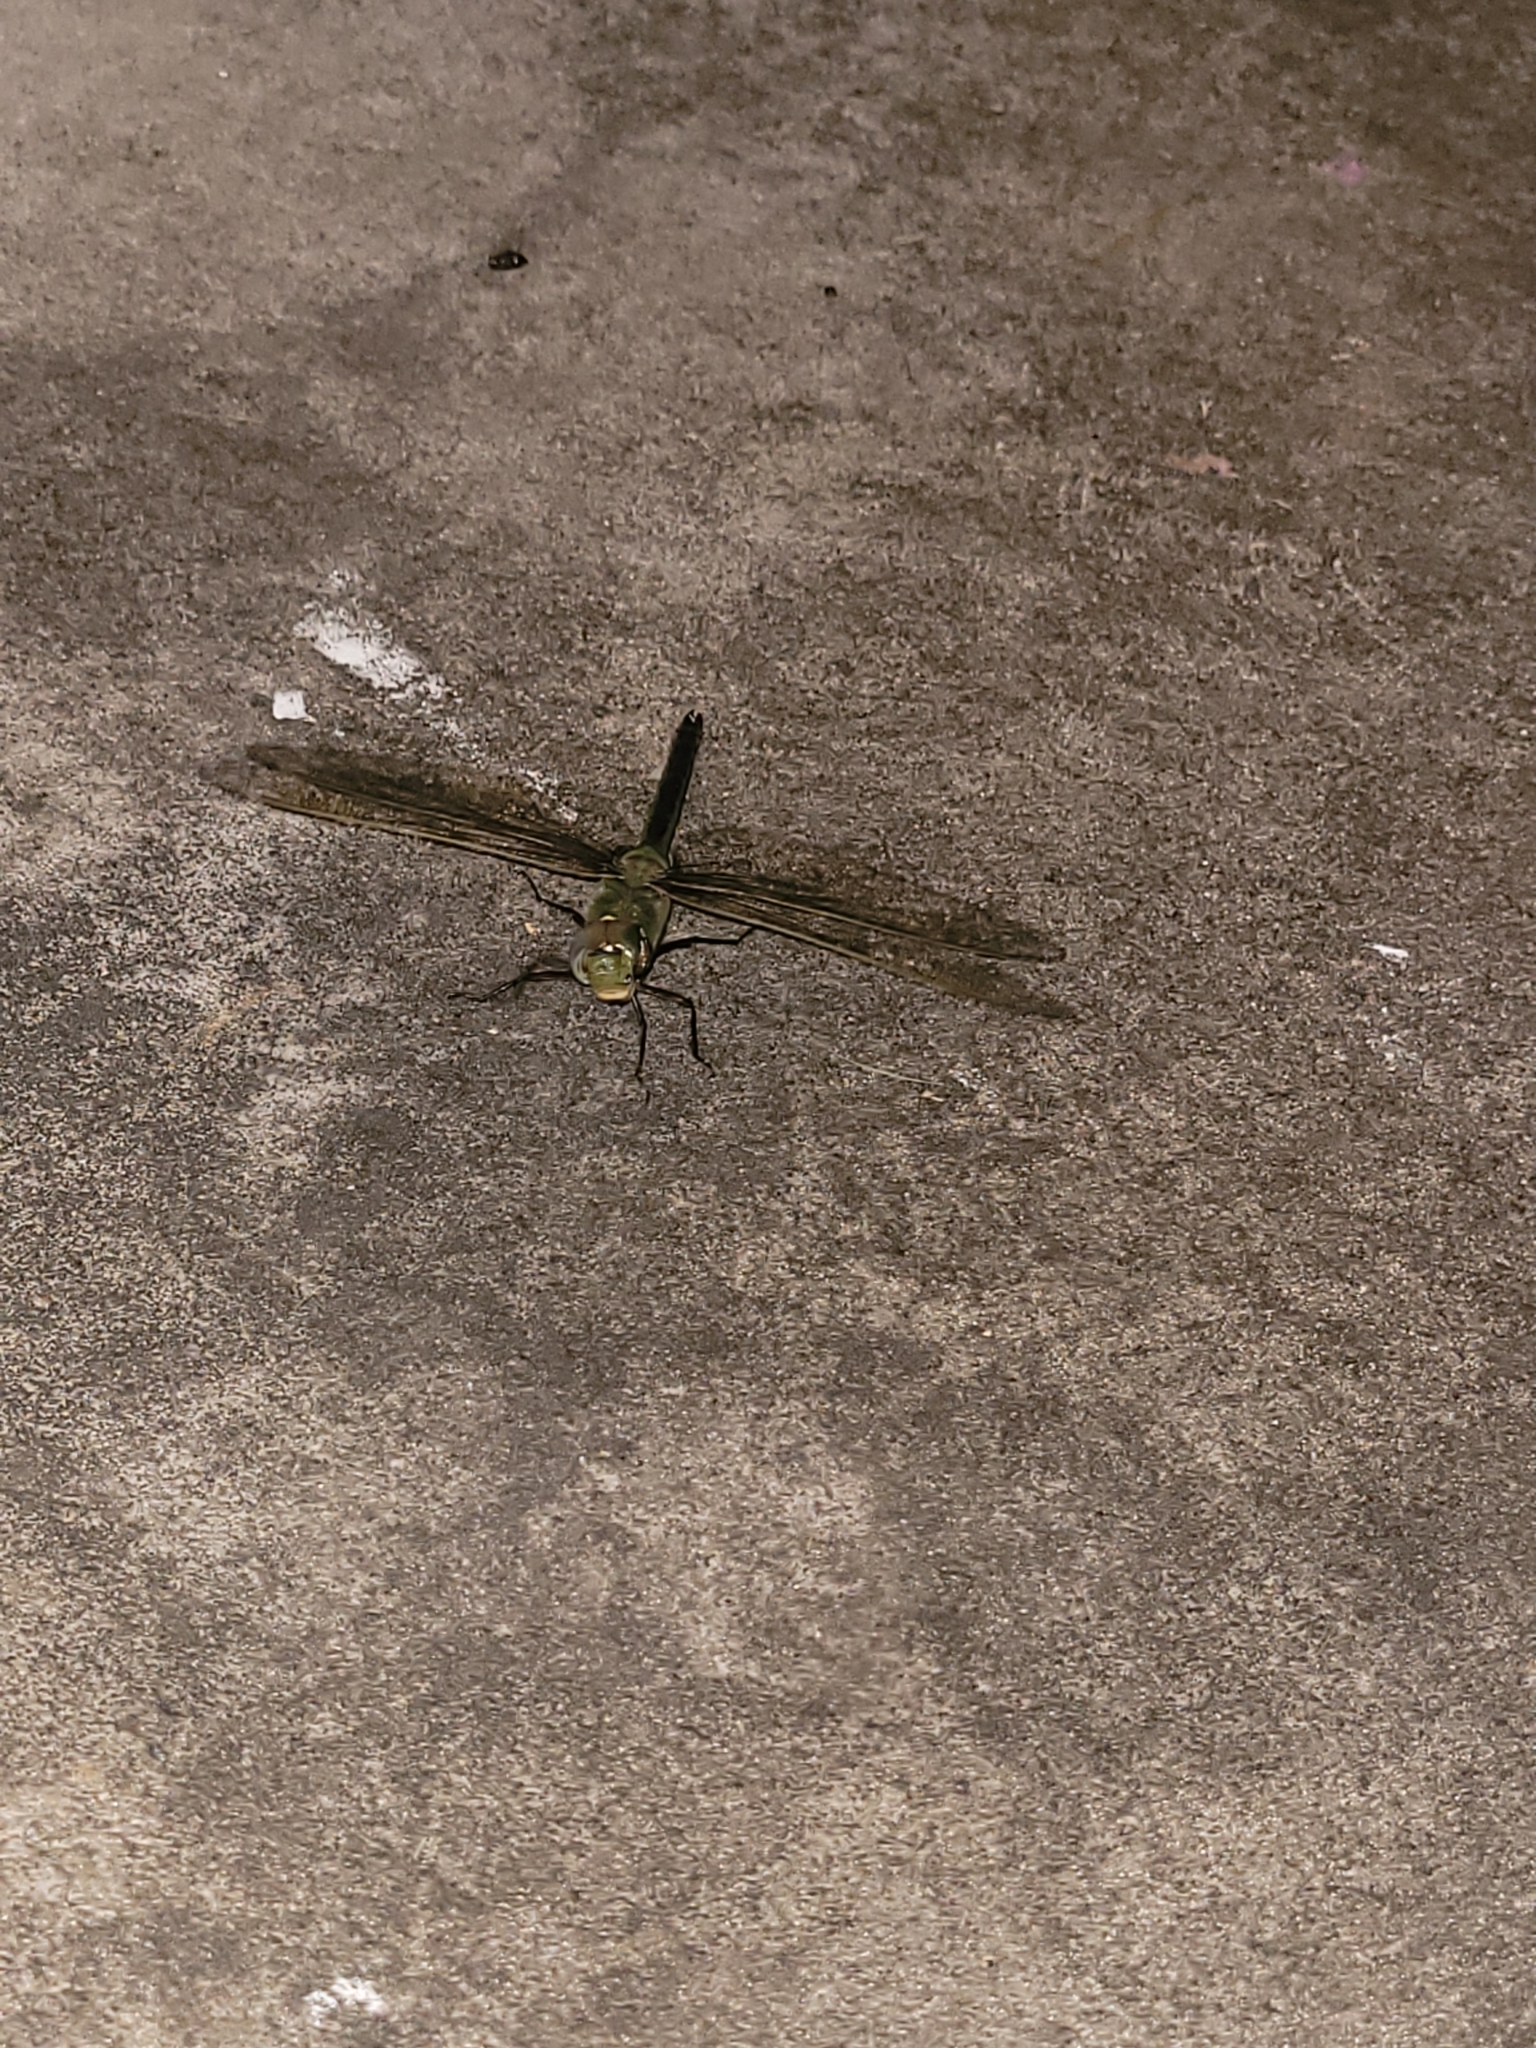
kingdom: Animalia
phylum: Arthropoda
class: Insecta
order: Odonata
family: Aeshnidae
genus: Anax
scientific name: Anax junius
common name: Common green darner
